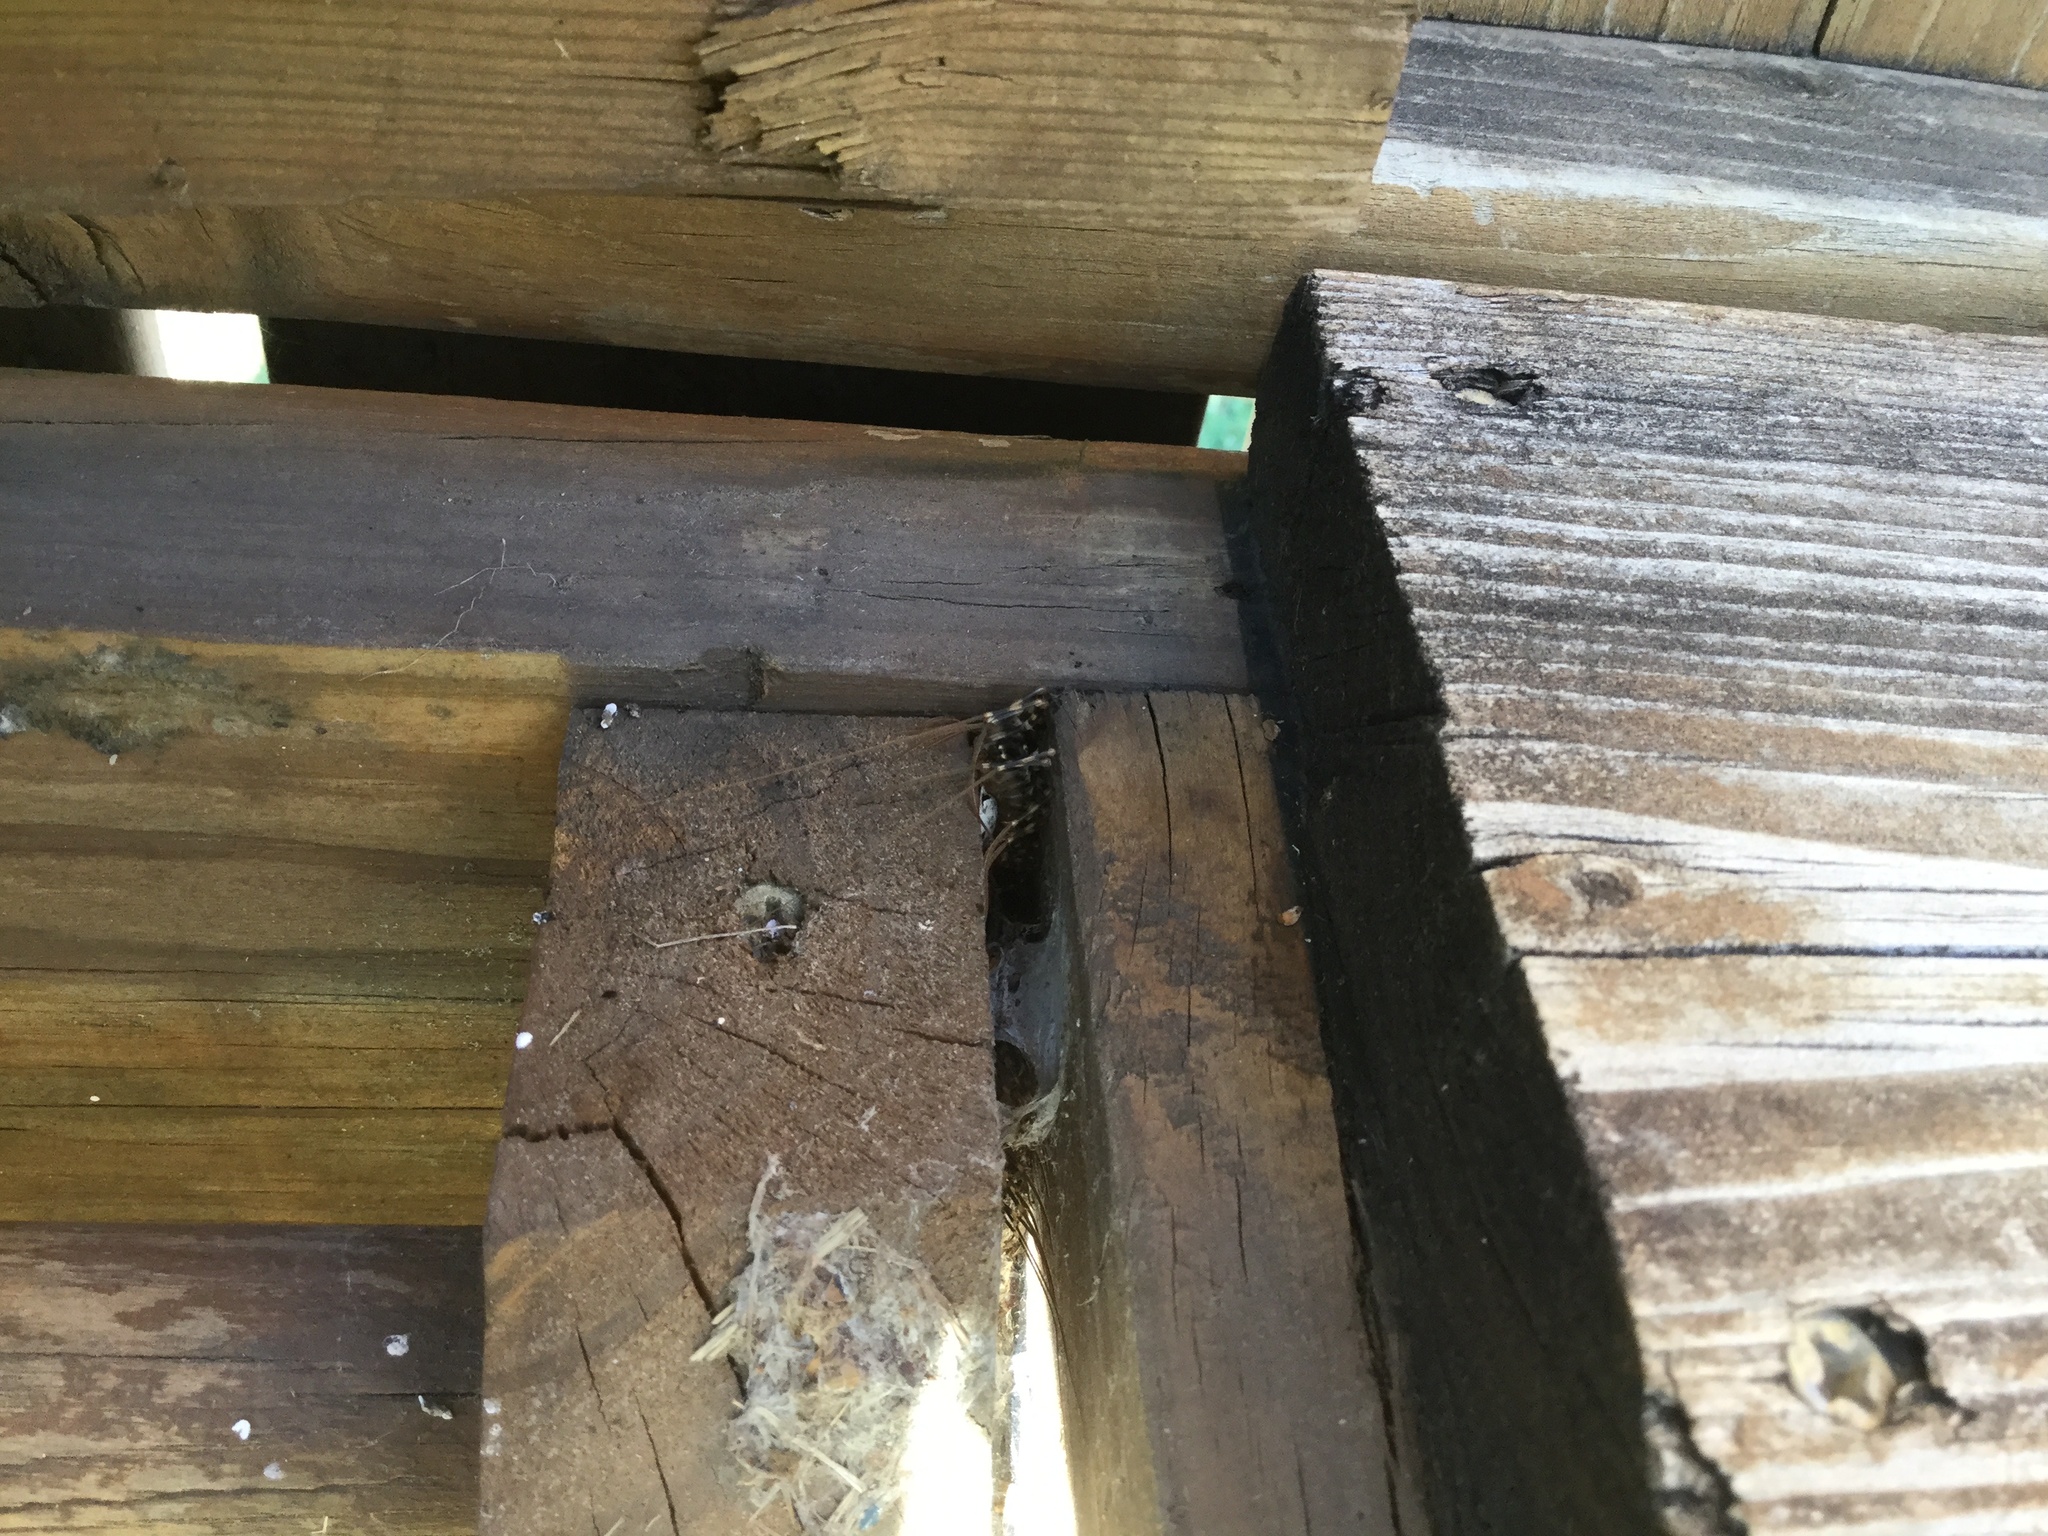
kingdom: Animalia
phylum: Arthropoda
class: Chilopoda
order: Scutigeromorpha
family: Scutigeridae
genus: Scutigera
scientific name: Scutigera coleoptrata
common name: House centipede
